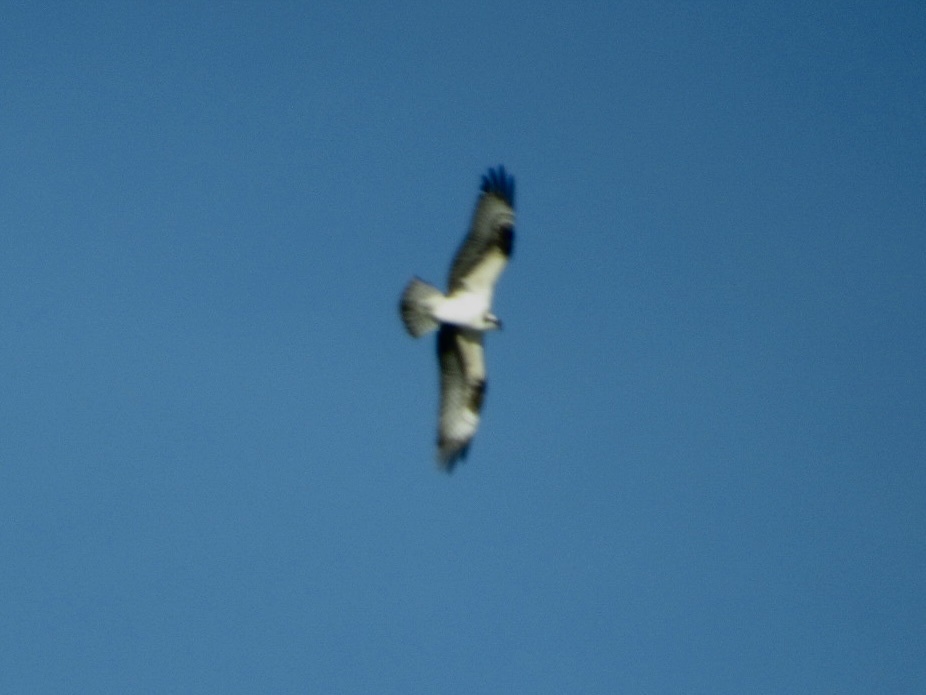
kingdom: Animalia
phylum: Chordata
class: Aves
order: Accipitriformes
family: Pandionidae
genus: Pandion
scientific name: Pandion haliaetus
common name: Osprey
